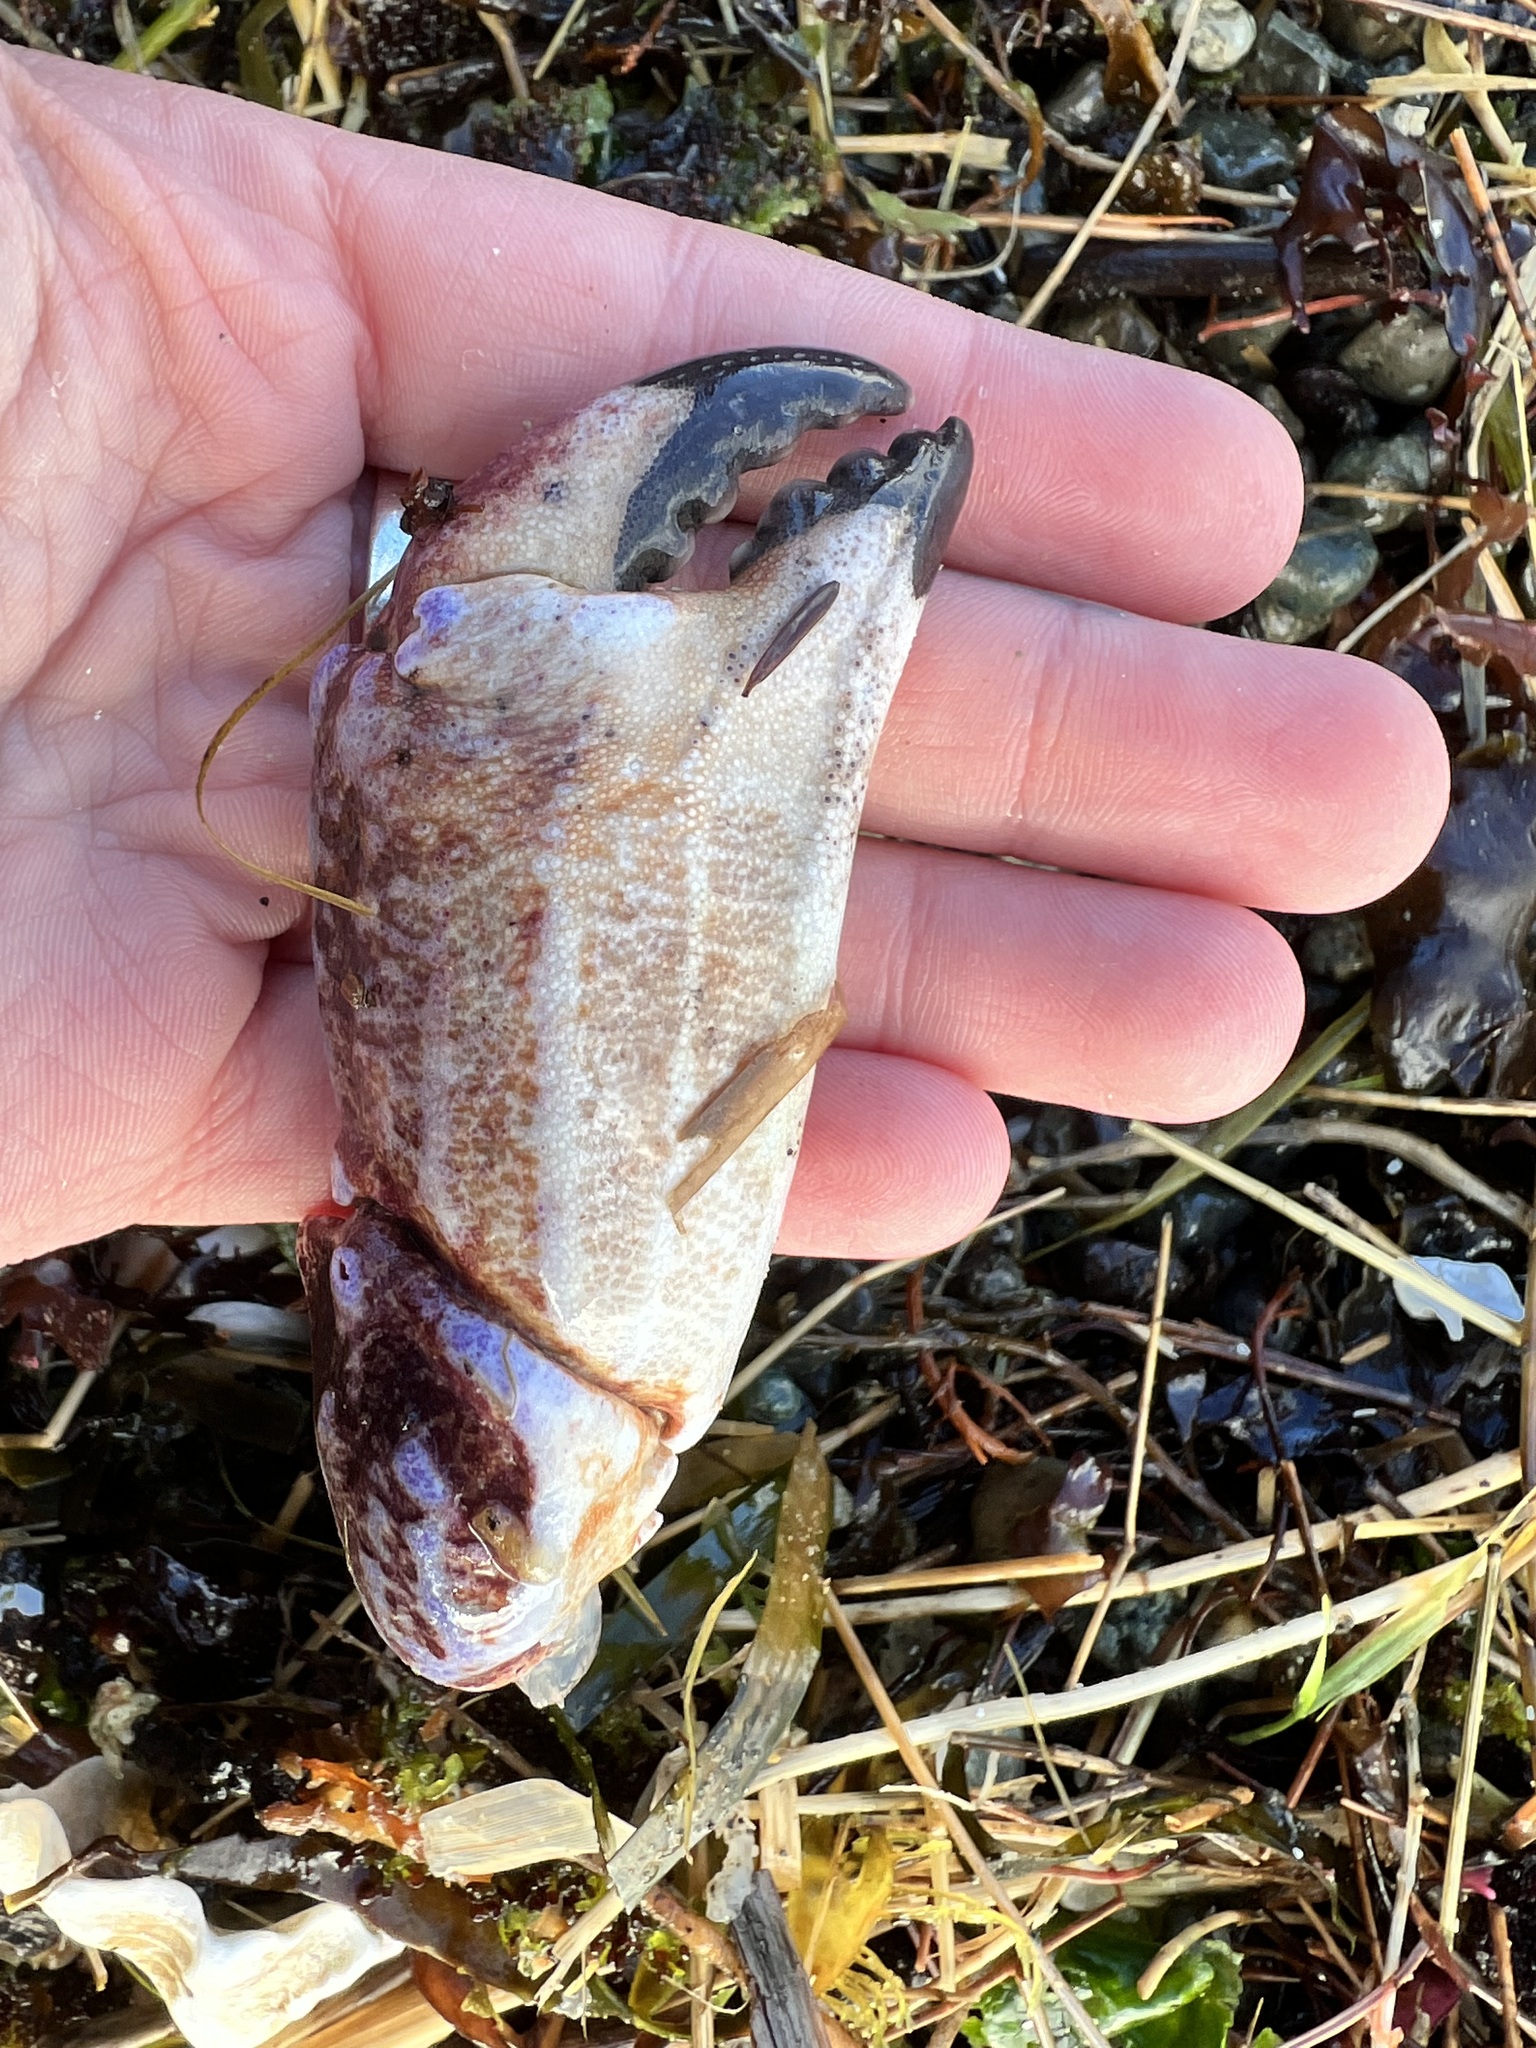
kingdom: Animalia
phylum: Arthropoda
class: Malacostraca
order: Decapoda
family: Cancridae
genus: Cancer
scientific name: Cancer productus
